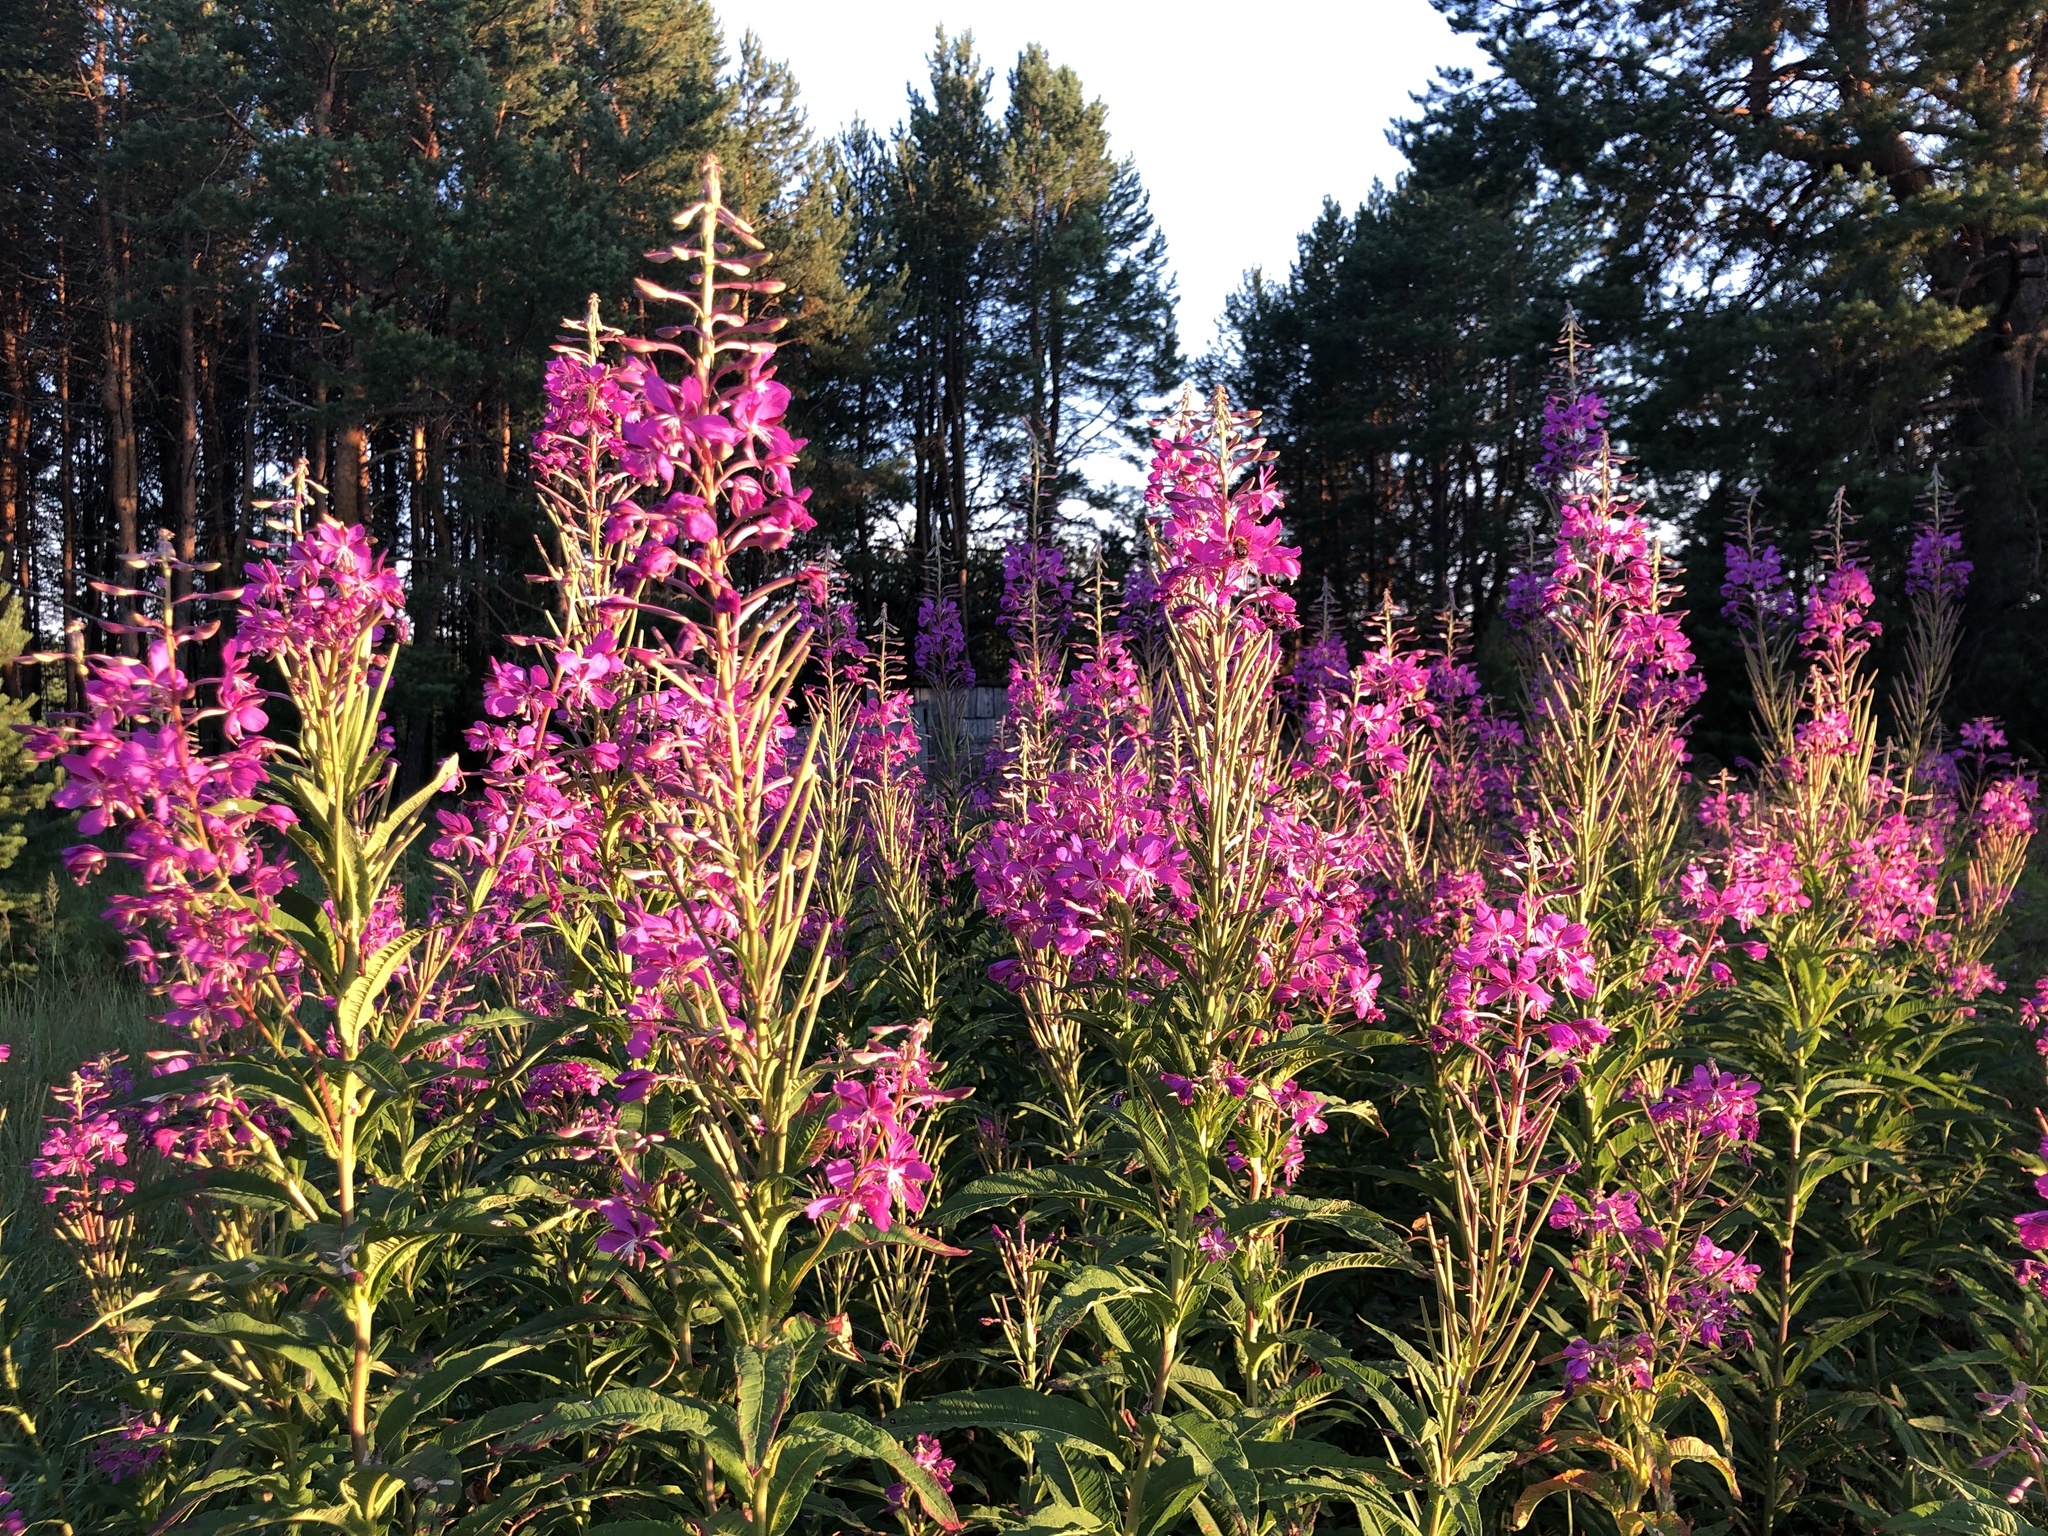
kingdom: Plantae
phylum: Tracheophyta
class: Magnoliopsida
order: Myrtales
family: Onagraceae
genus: Chamaenerion
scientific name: Chamaenerion angustifolium
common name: Fireweed
